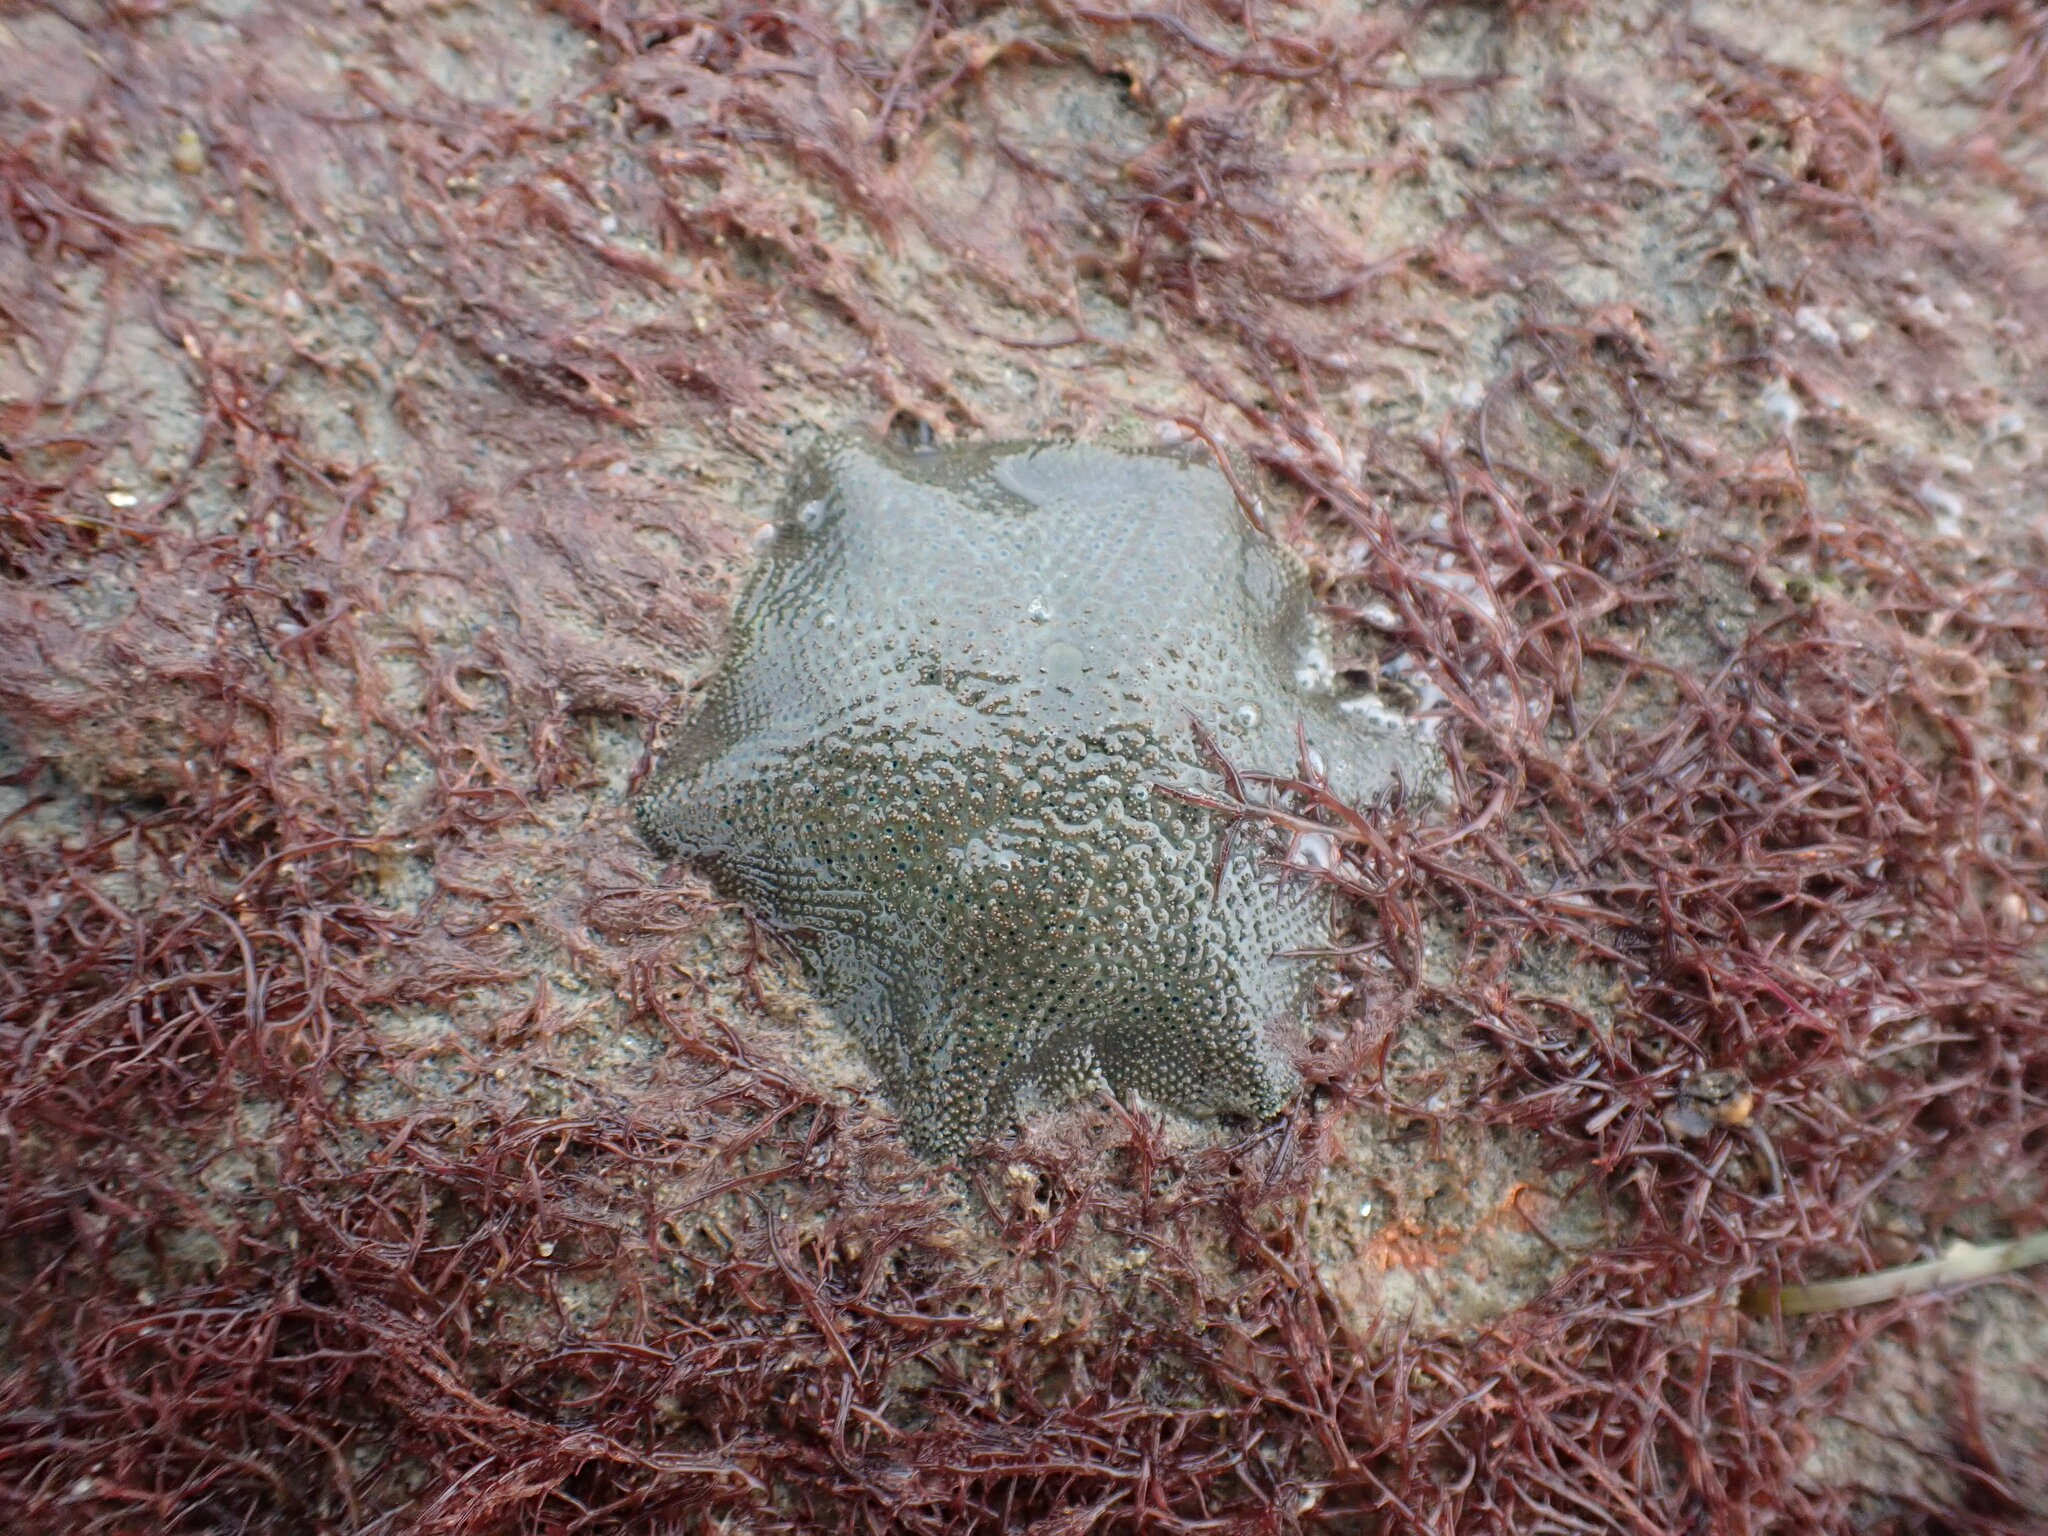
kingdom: Animalia
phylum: Echinodermata
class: Asteroidea
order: Valvatida
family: Asterinidae
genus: Patiriella
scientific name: Patiriella regularis
